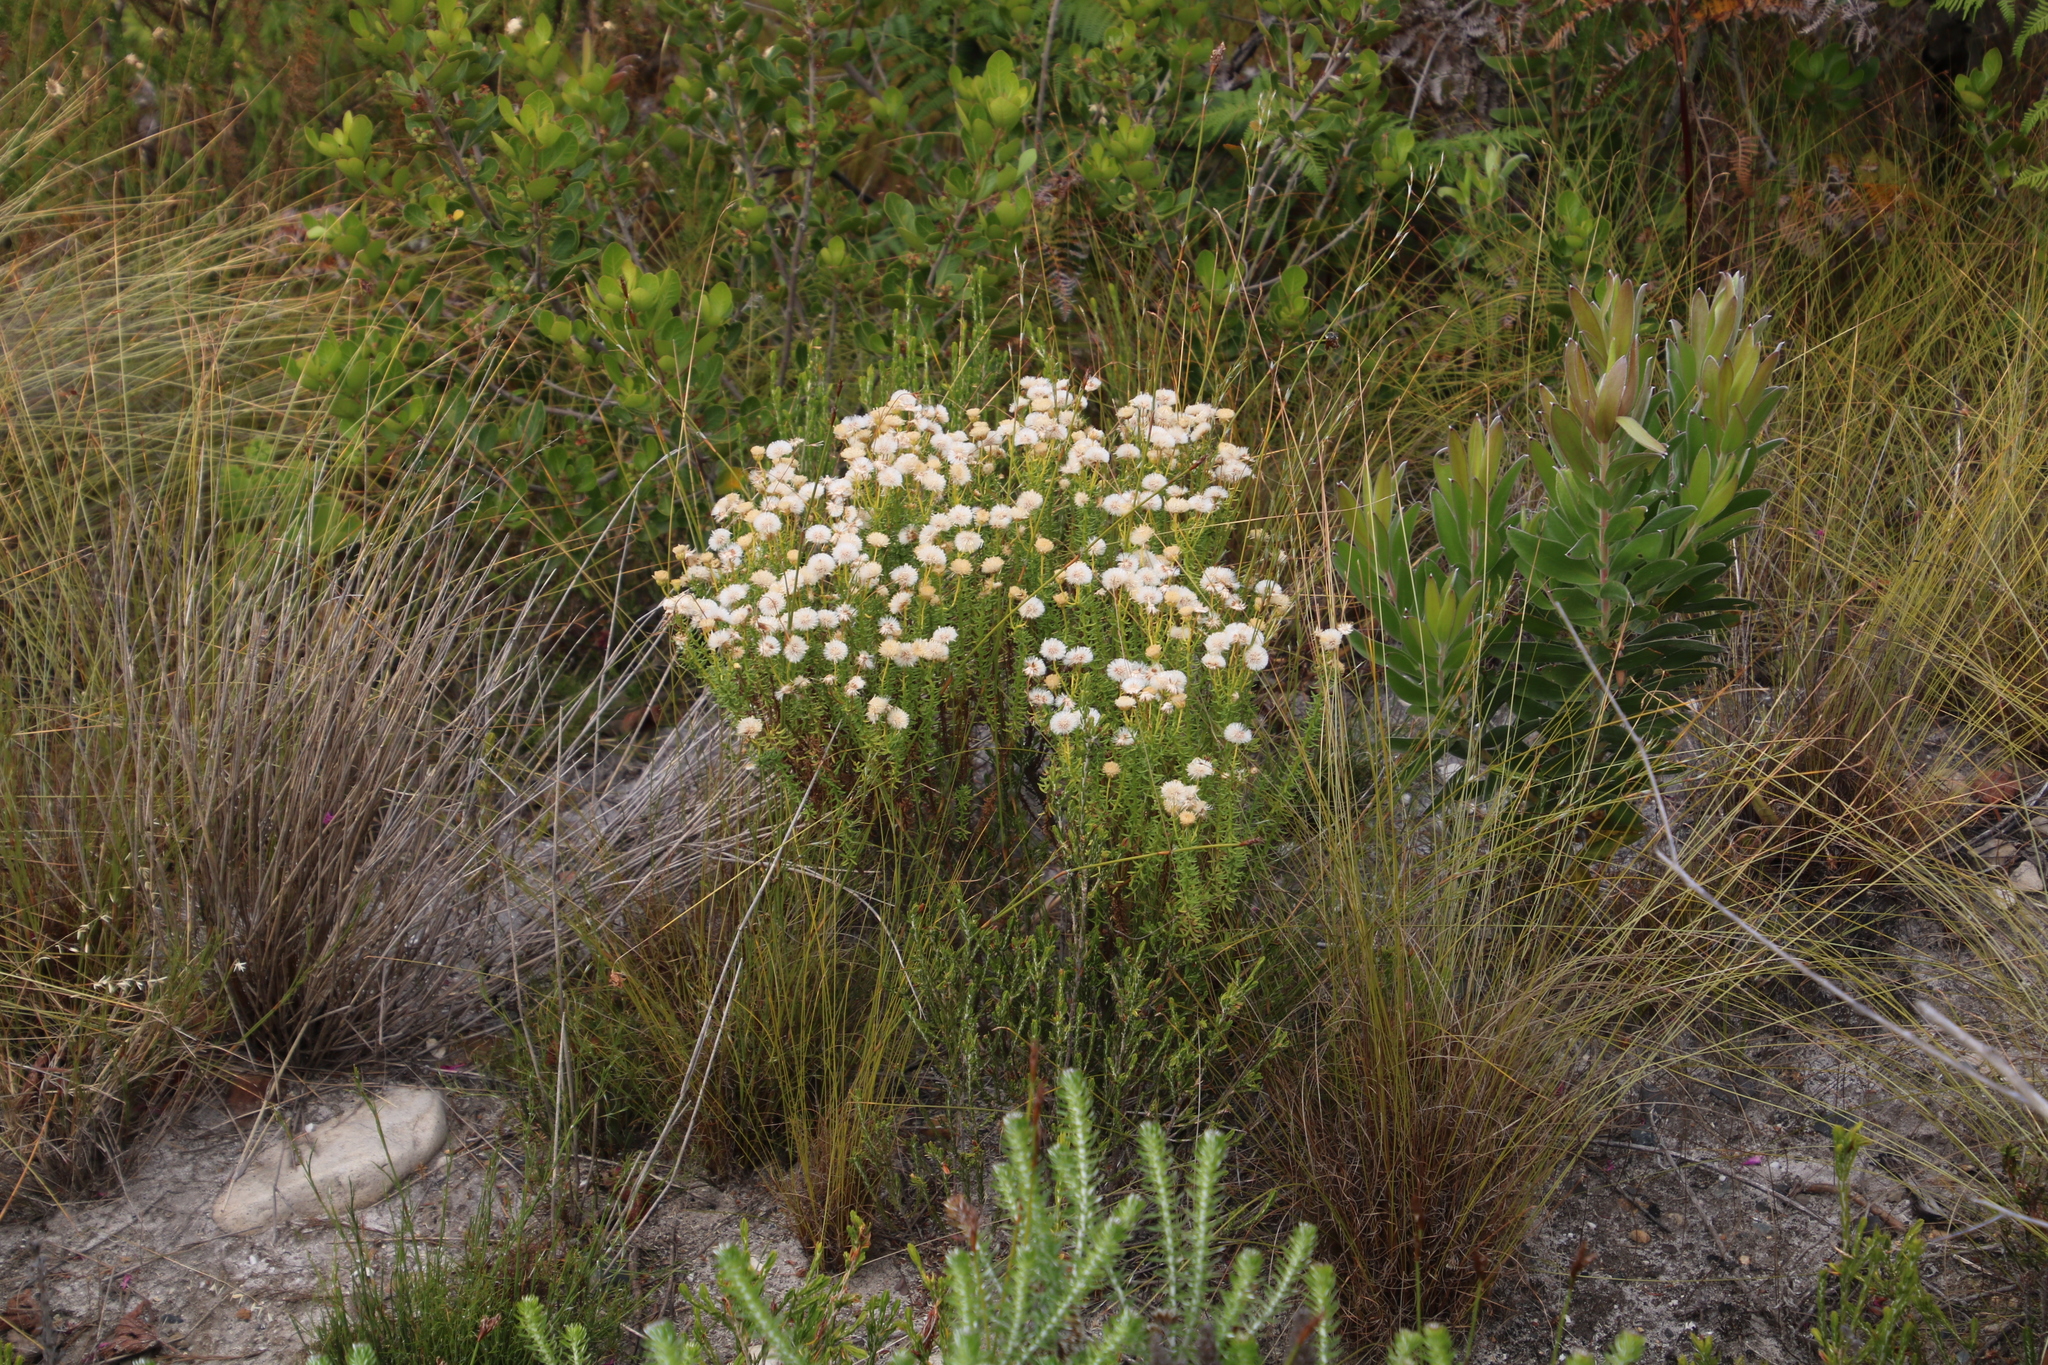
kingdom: Plantae
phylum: Tracheophyta
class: Magnoliopsida
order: Asterales
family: Asteraceae
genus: Chrysocoma
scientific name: Chrysocoma cernua
